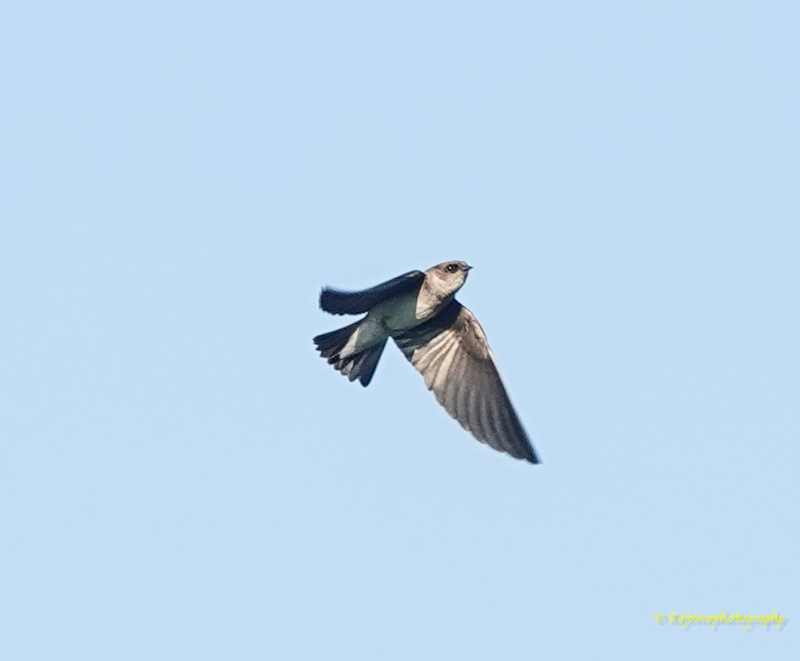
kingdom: Animalia
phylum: Chordata
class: Aves
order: Passeriformes
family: Hirundinidae
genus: Riparia
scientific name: Riparia riparia
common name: Sand martin
